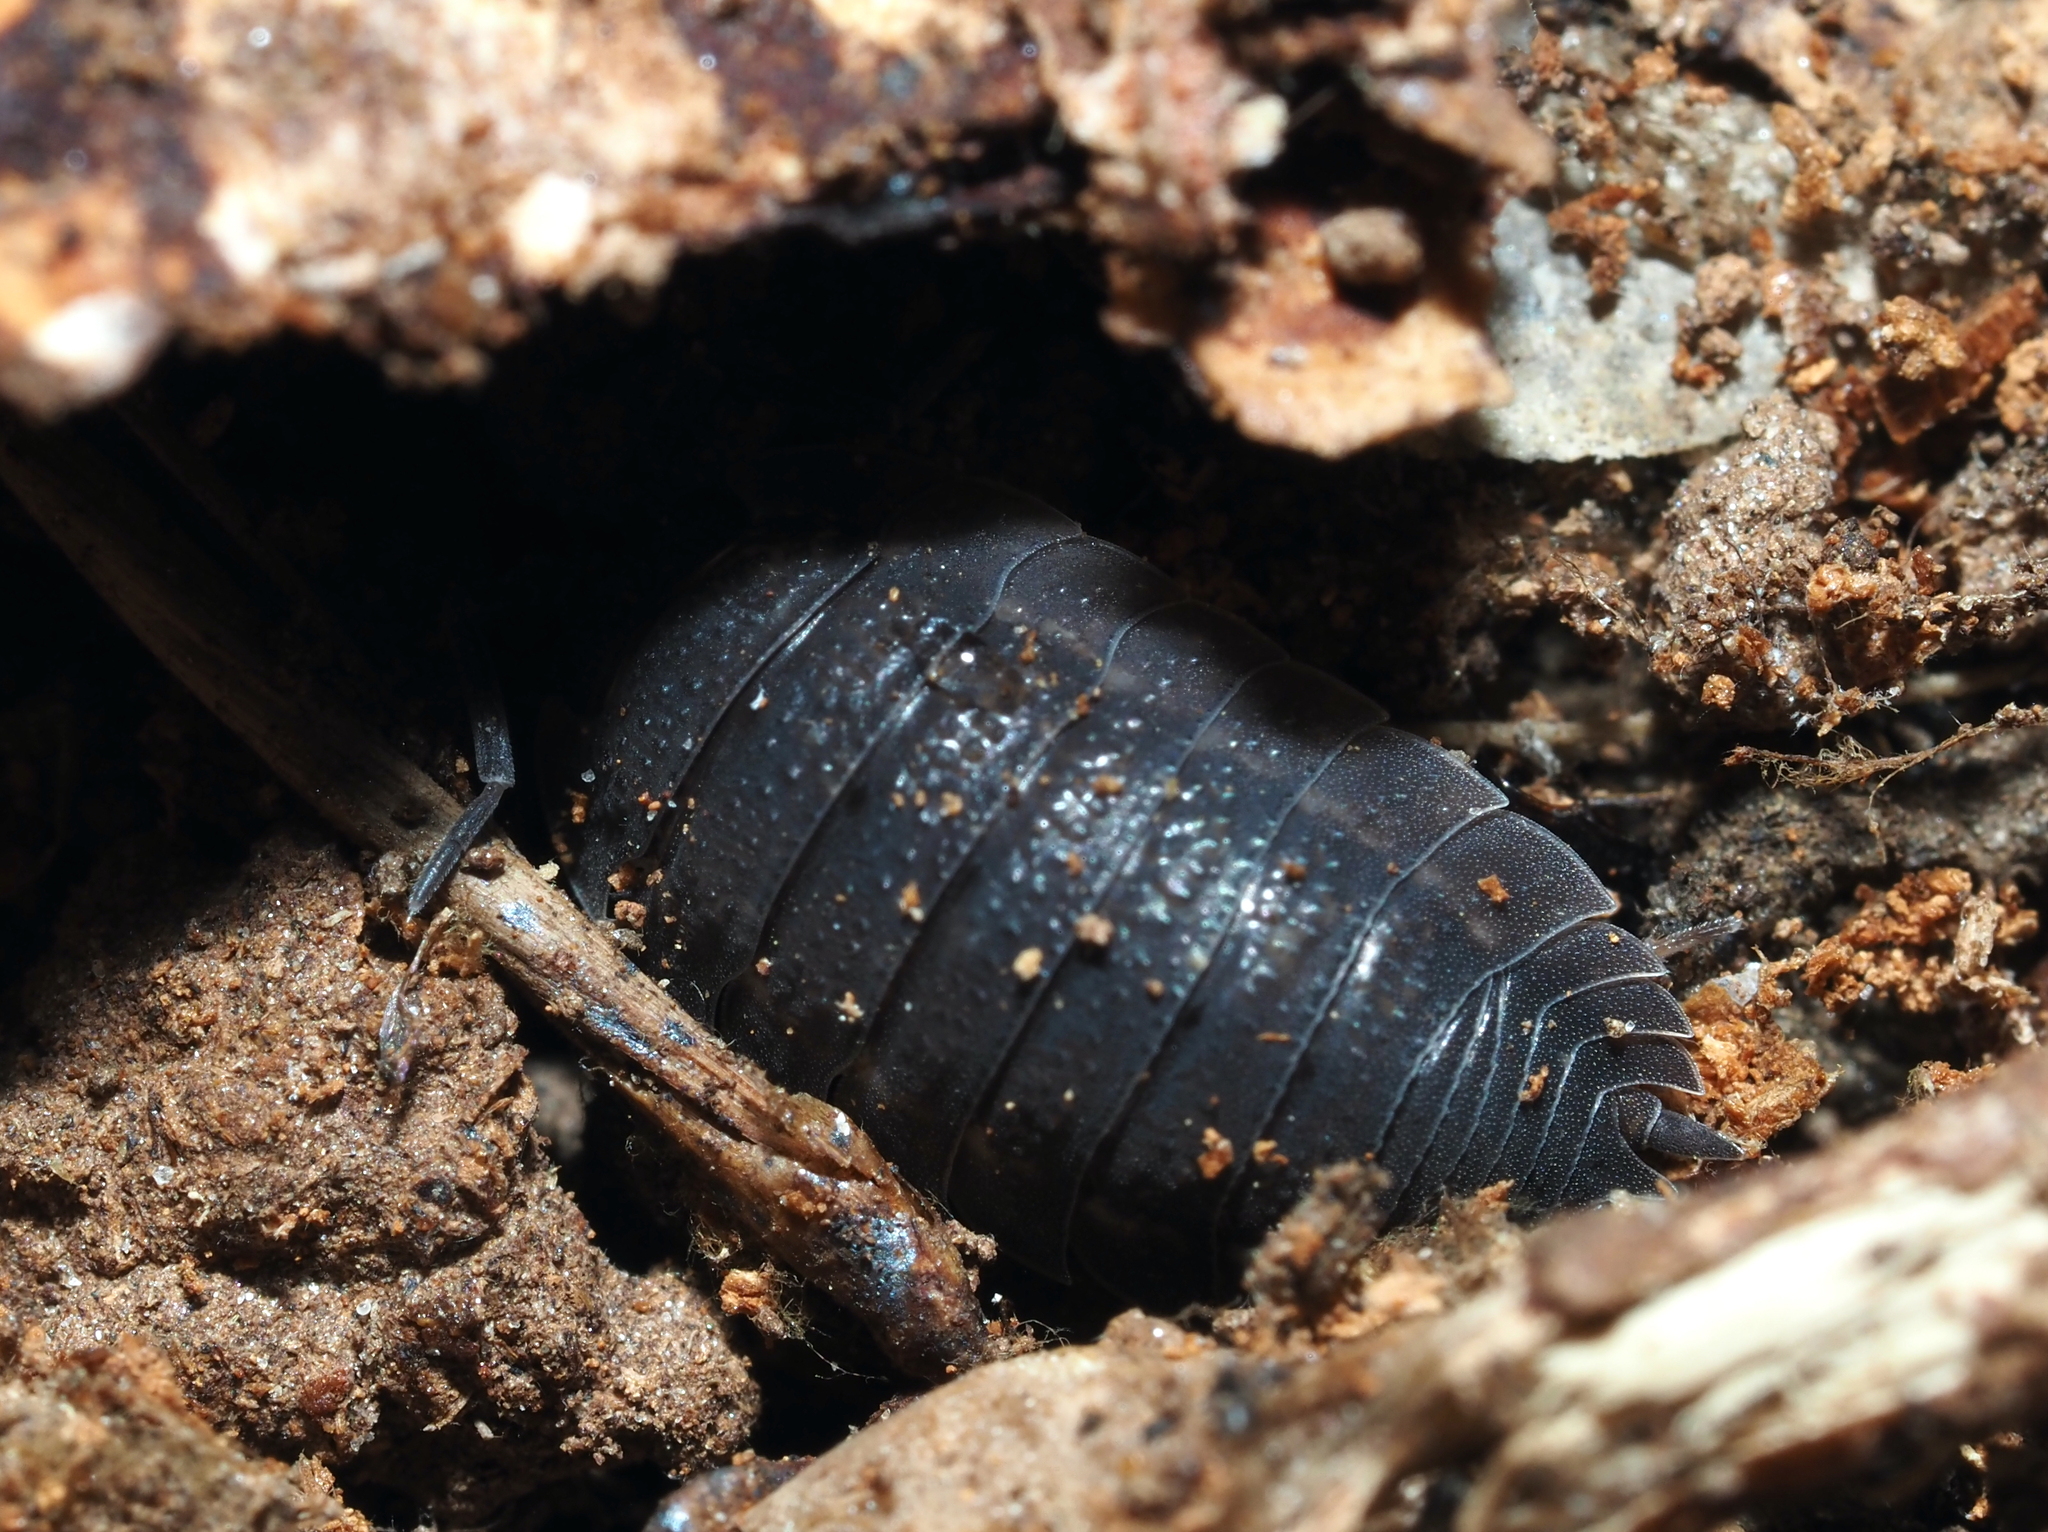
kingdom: Animalia
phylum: Arthropoda
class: Malacostraca
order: Isopoda
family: Porcellionidae
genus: Porcellio
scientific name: Porcellio scaber
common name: Common rough woodlouse
